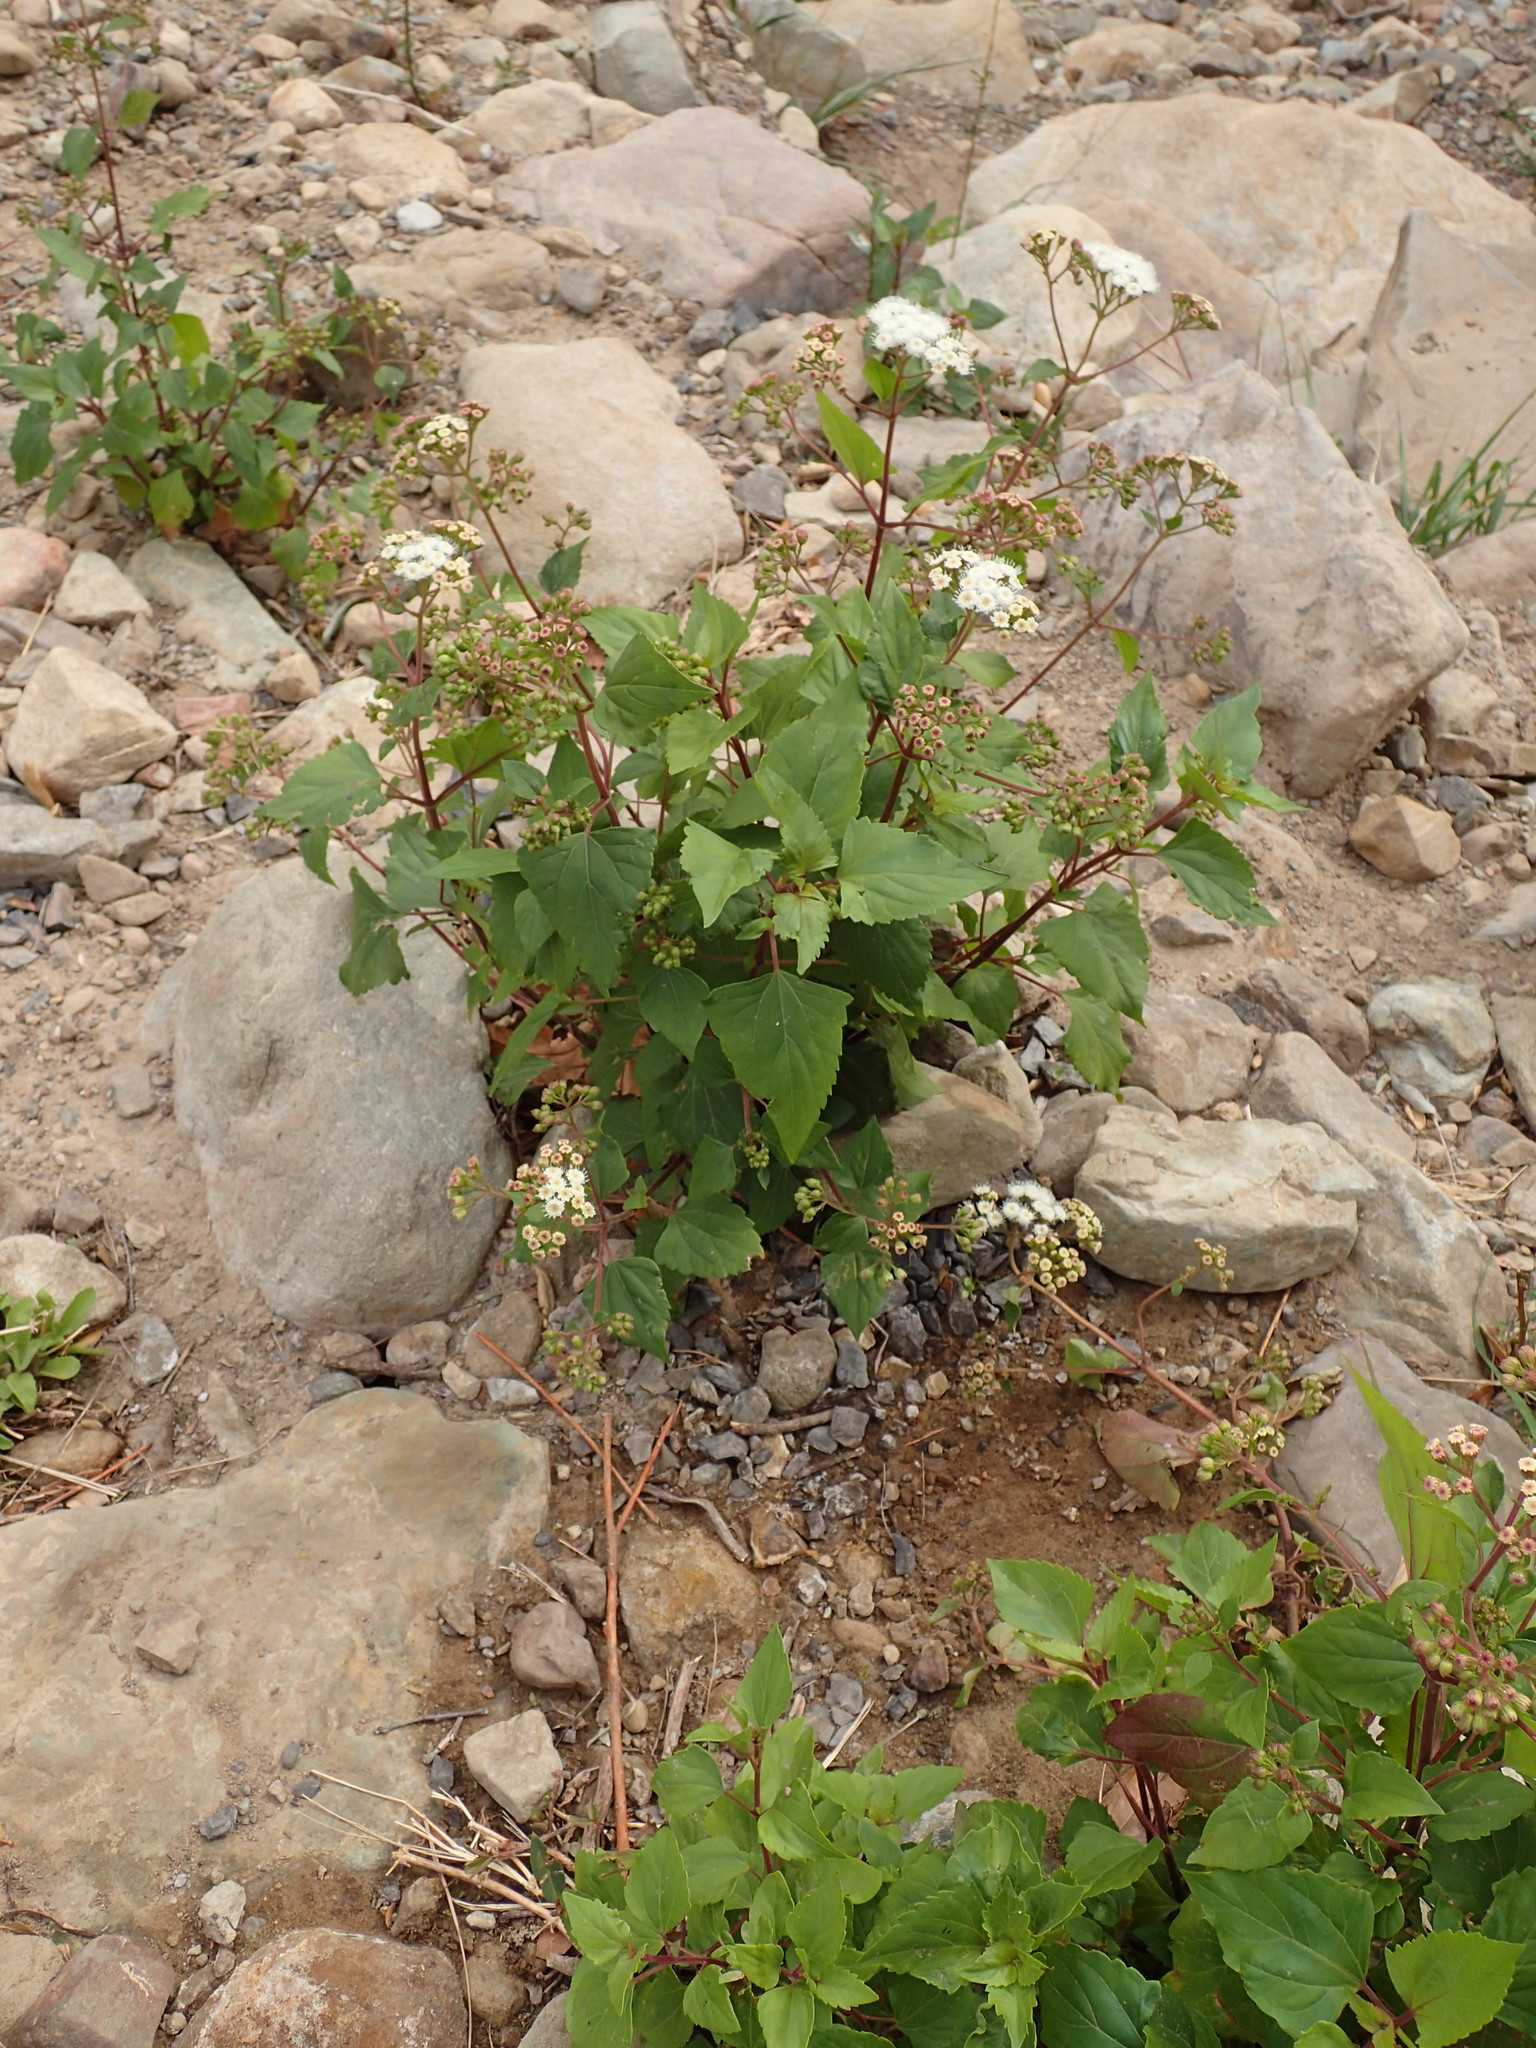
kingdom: Plantae
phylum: Tracheophyta
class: Magnoliopsida
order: Asterales
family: Asteraceae
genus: Ageratina
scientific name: Ageratina adenophora
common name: Sticky snakeroot
